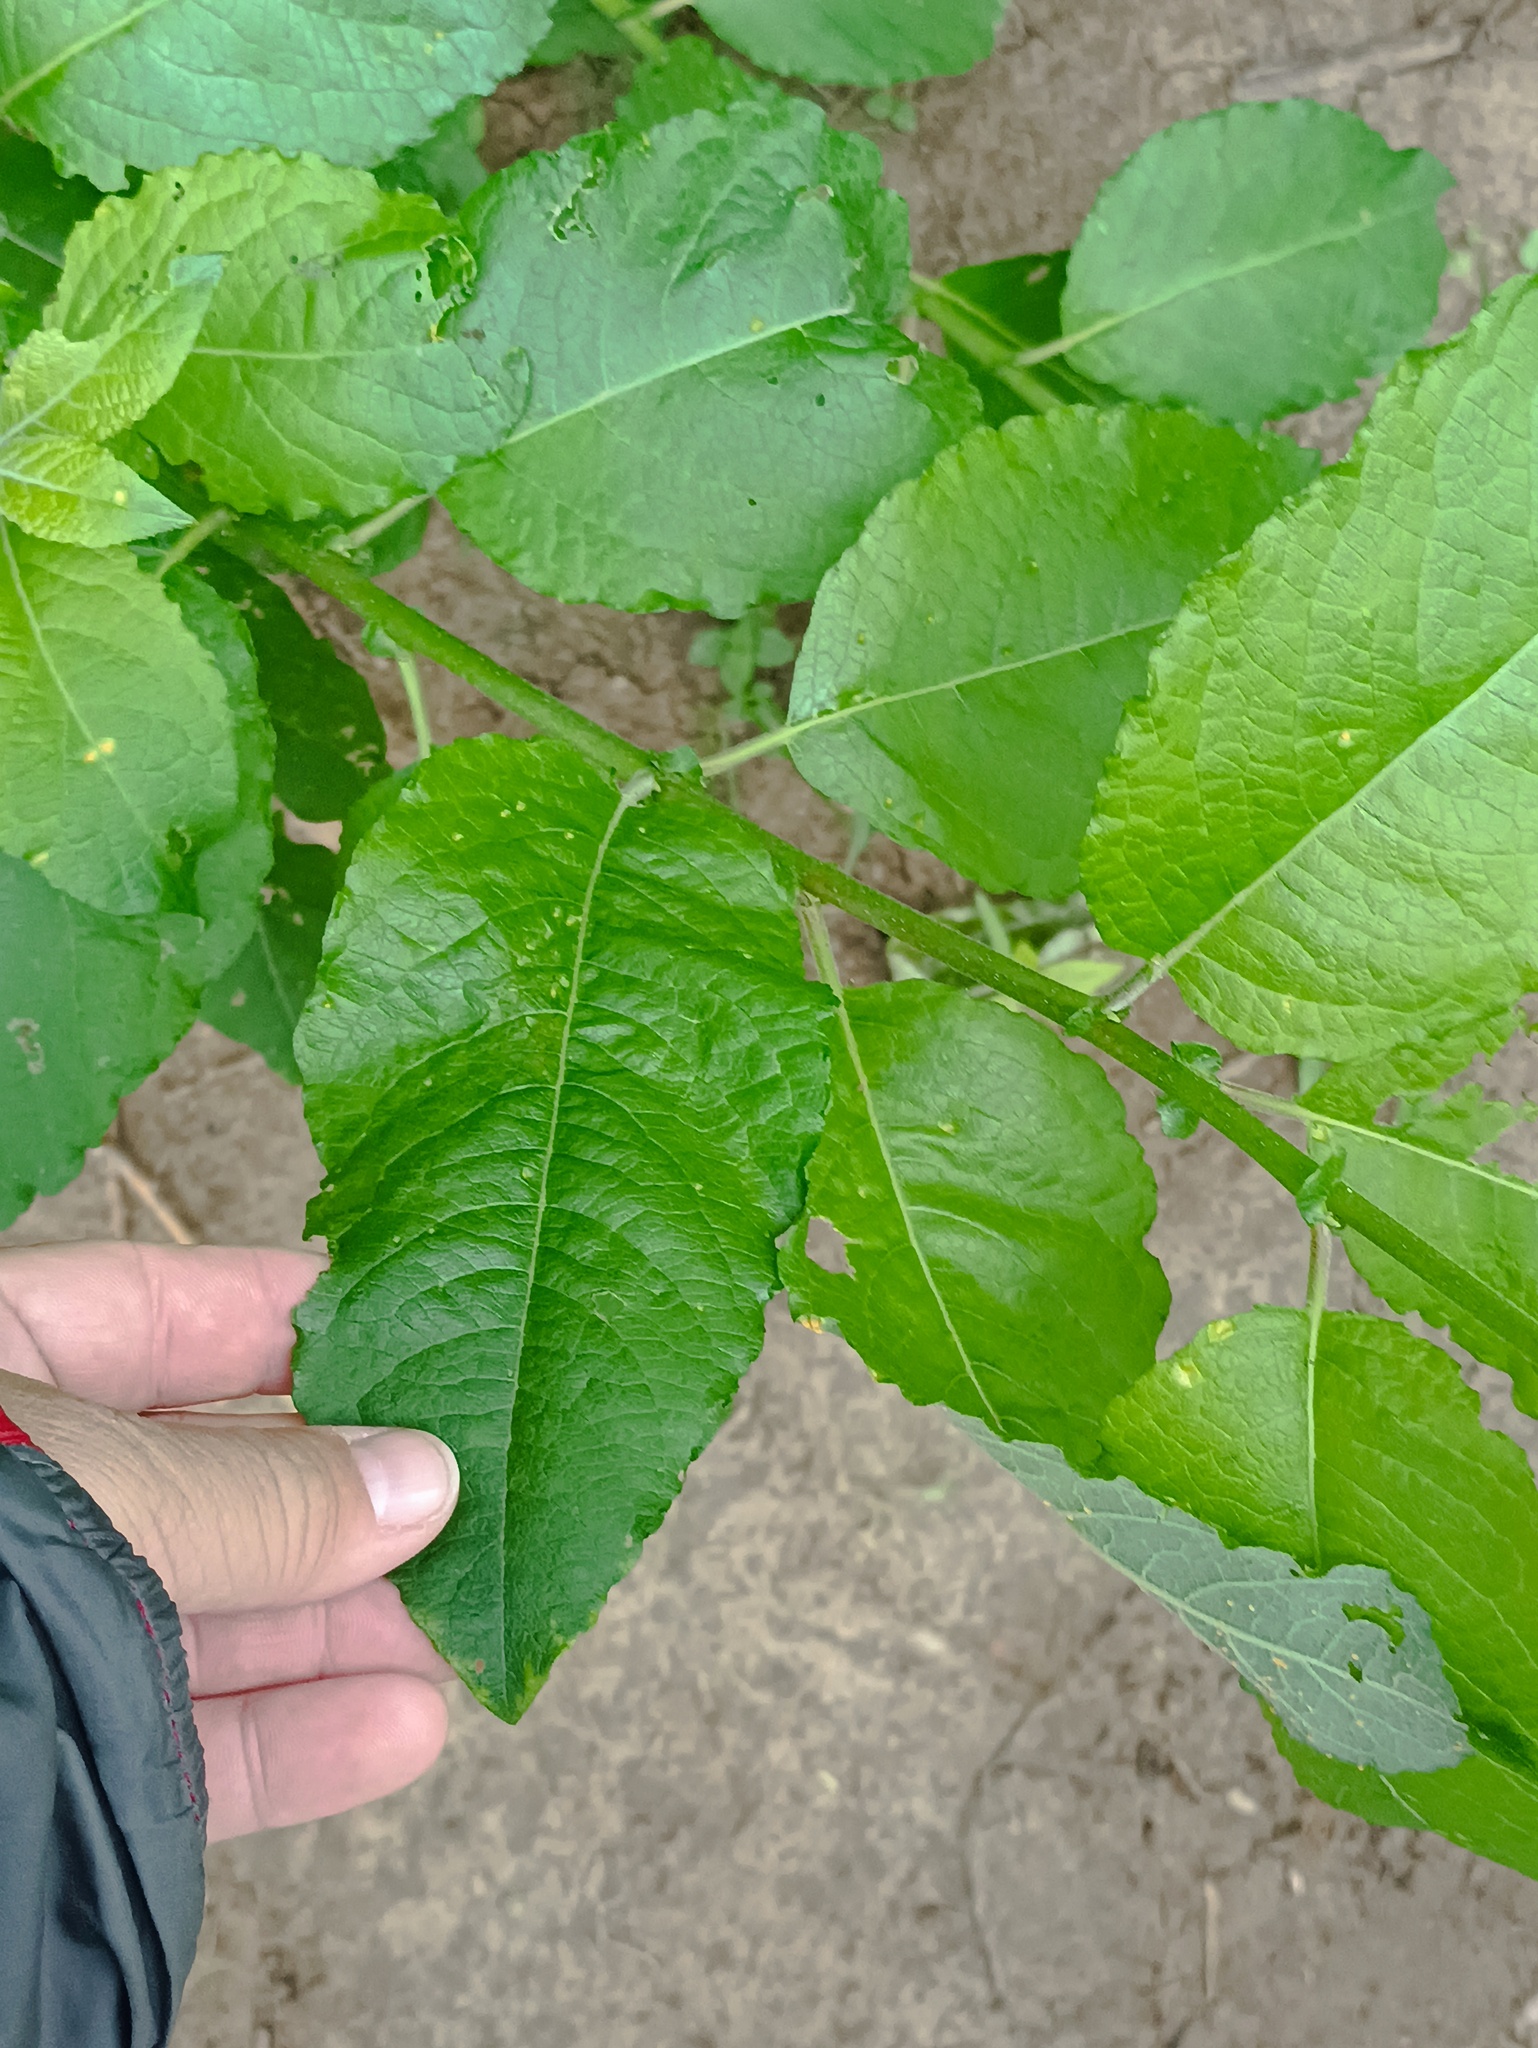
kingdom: Plantae
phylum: Tracheophyta
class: Magnoliopsida
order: Malpighiales
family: Salicaceae
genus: Salix
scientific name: Salix caprea
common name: Goat willow
